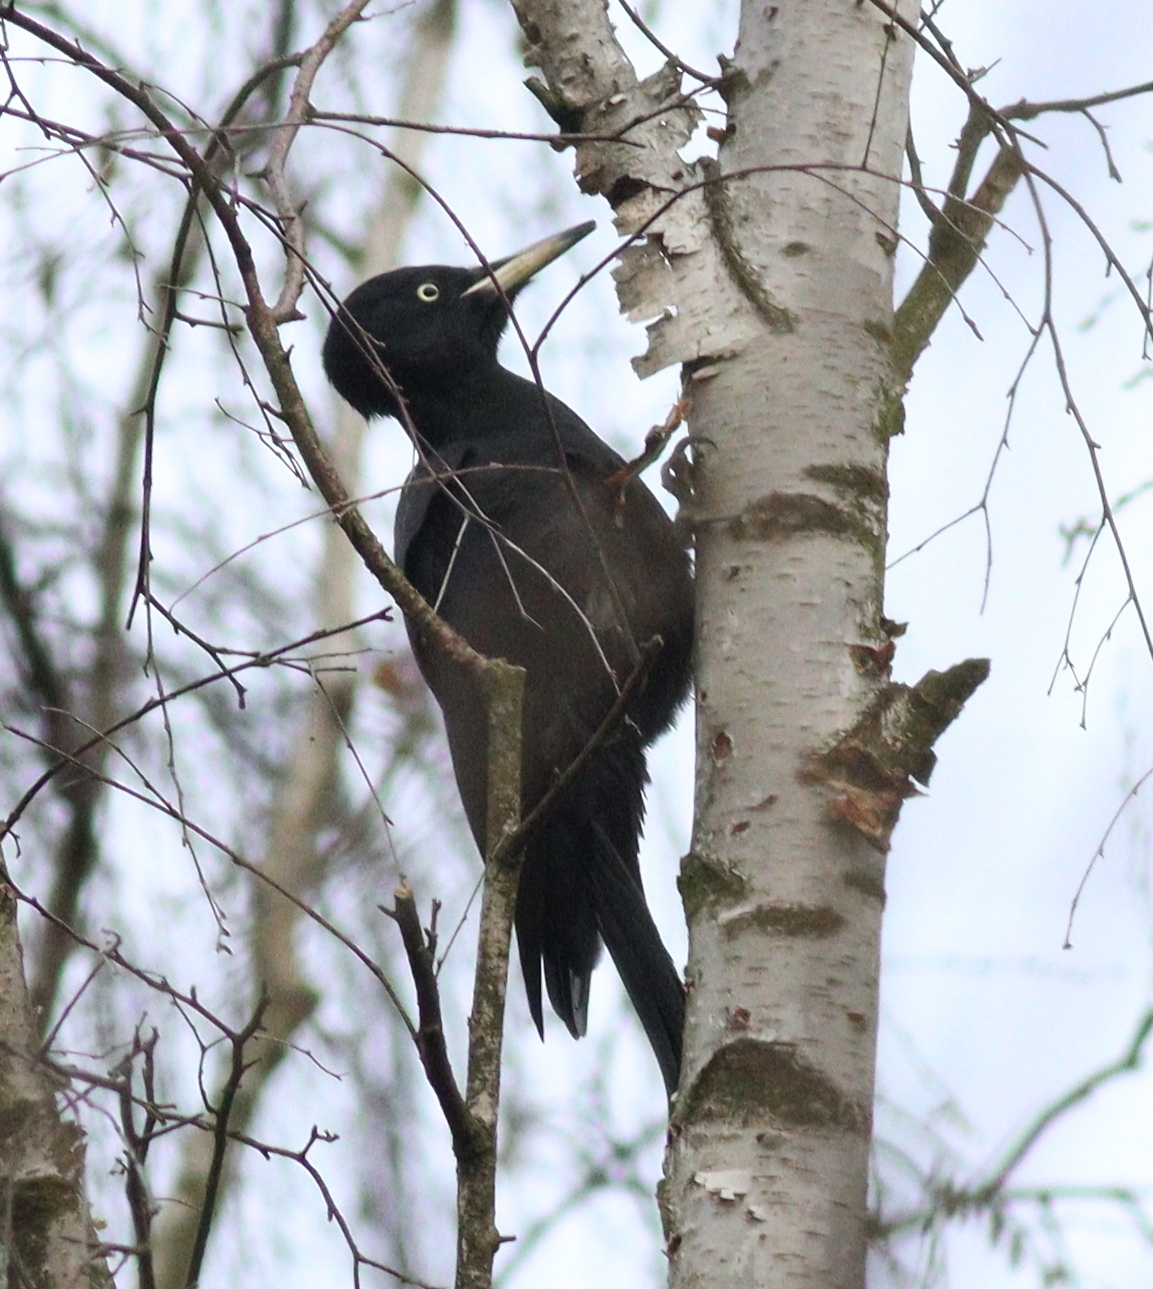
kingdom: Animalia
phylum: Chordata
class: Aves
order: Piciformes
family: Picidae
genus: Dryocopus
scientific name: Dryocopus martius
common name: Black woodpecker
